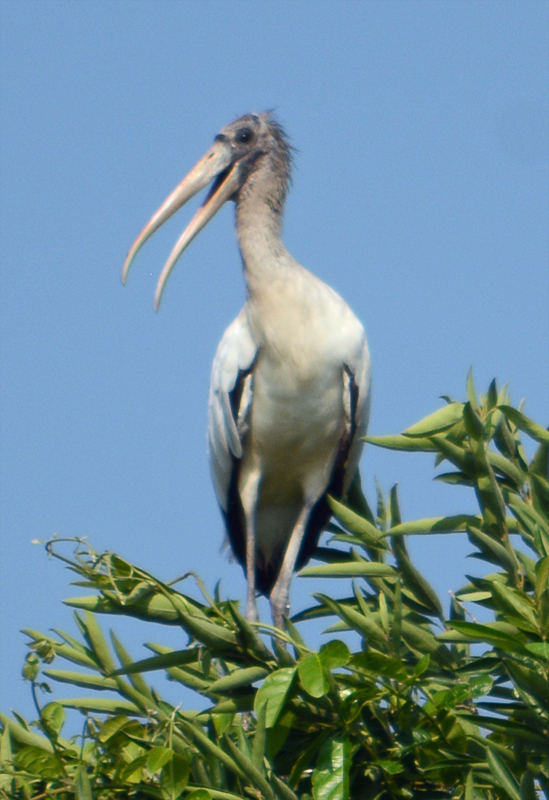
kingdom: Animalia
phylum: Chordata
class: Aves
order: Ciconiiformes
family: Ciconiidae
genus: Mycteria
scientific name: Mycteria americana
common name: Wood stork
